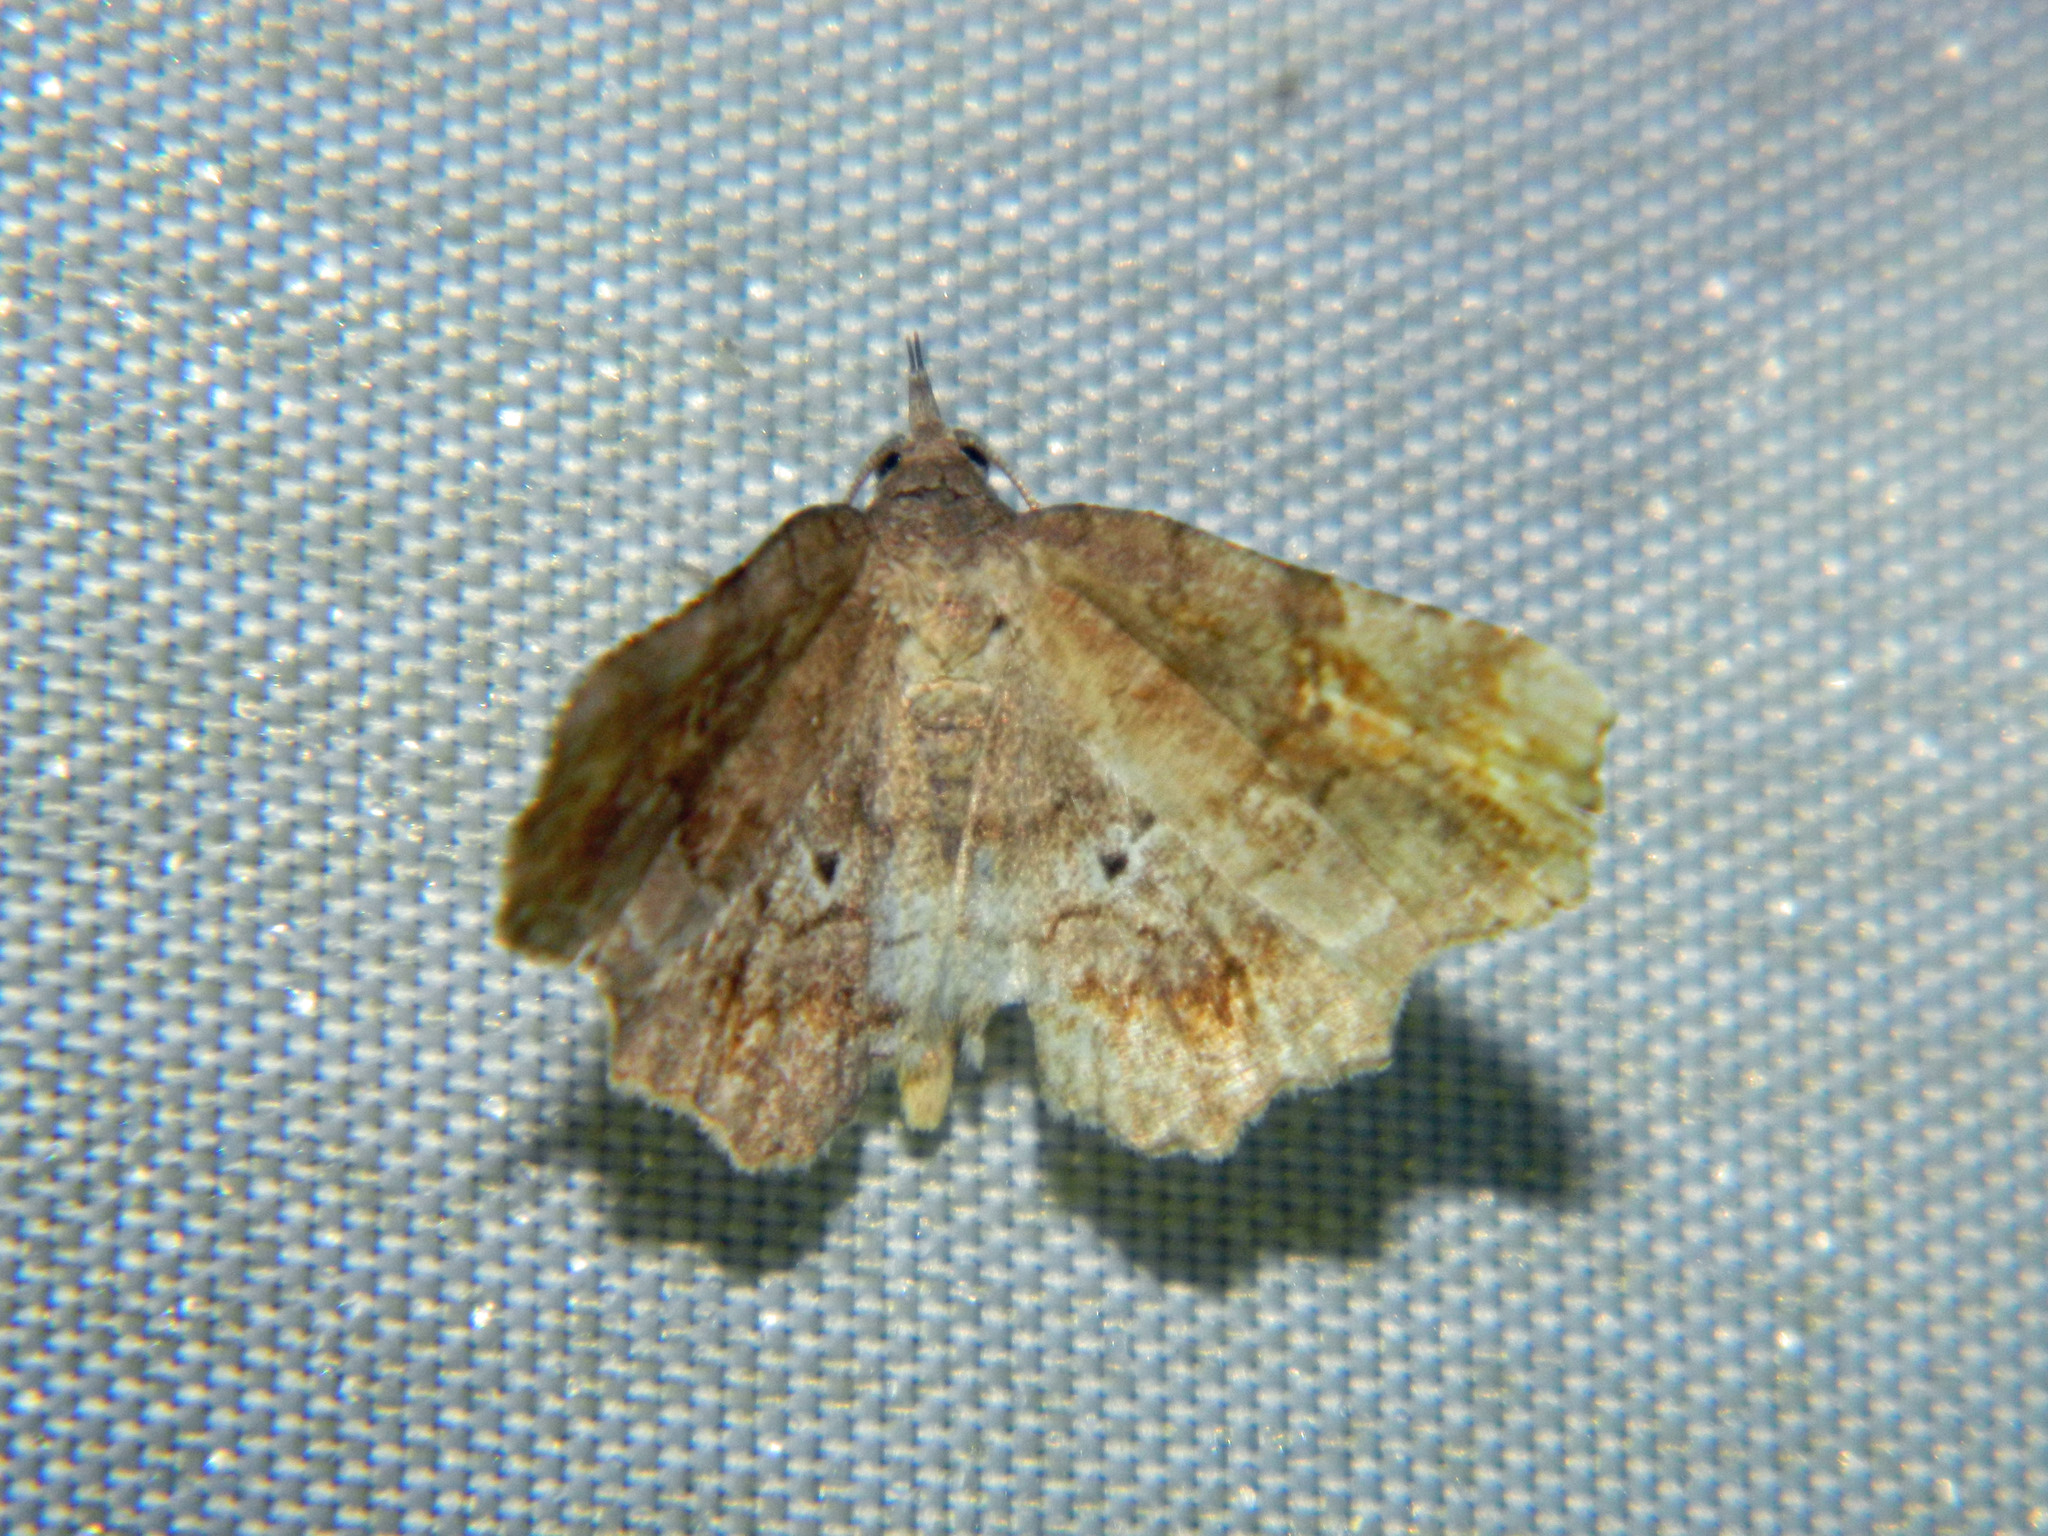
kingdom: Animalia
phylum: Arthropoda
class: Insecta
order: Lepidoptera
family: Erebidae
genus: Pangrapta
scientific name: Pangrapta decoralis
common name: Decorated owlet
